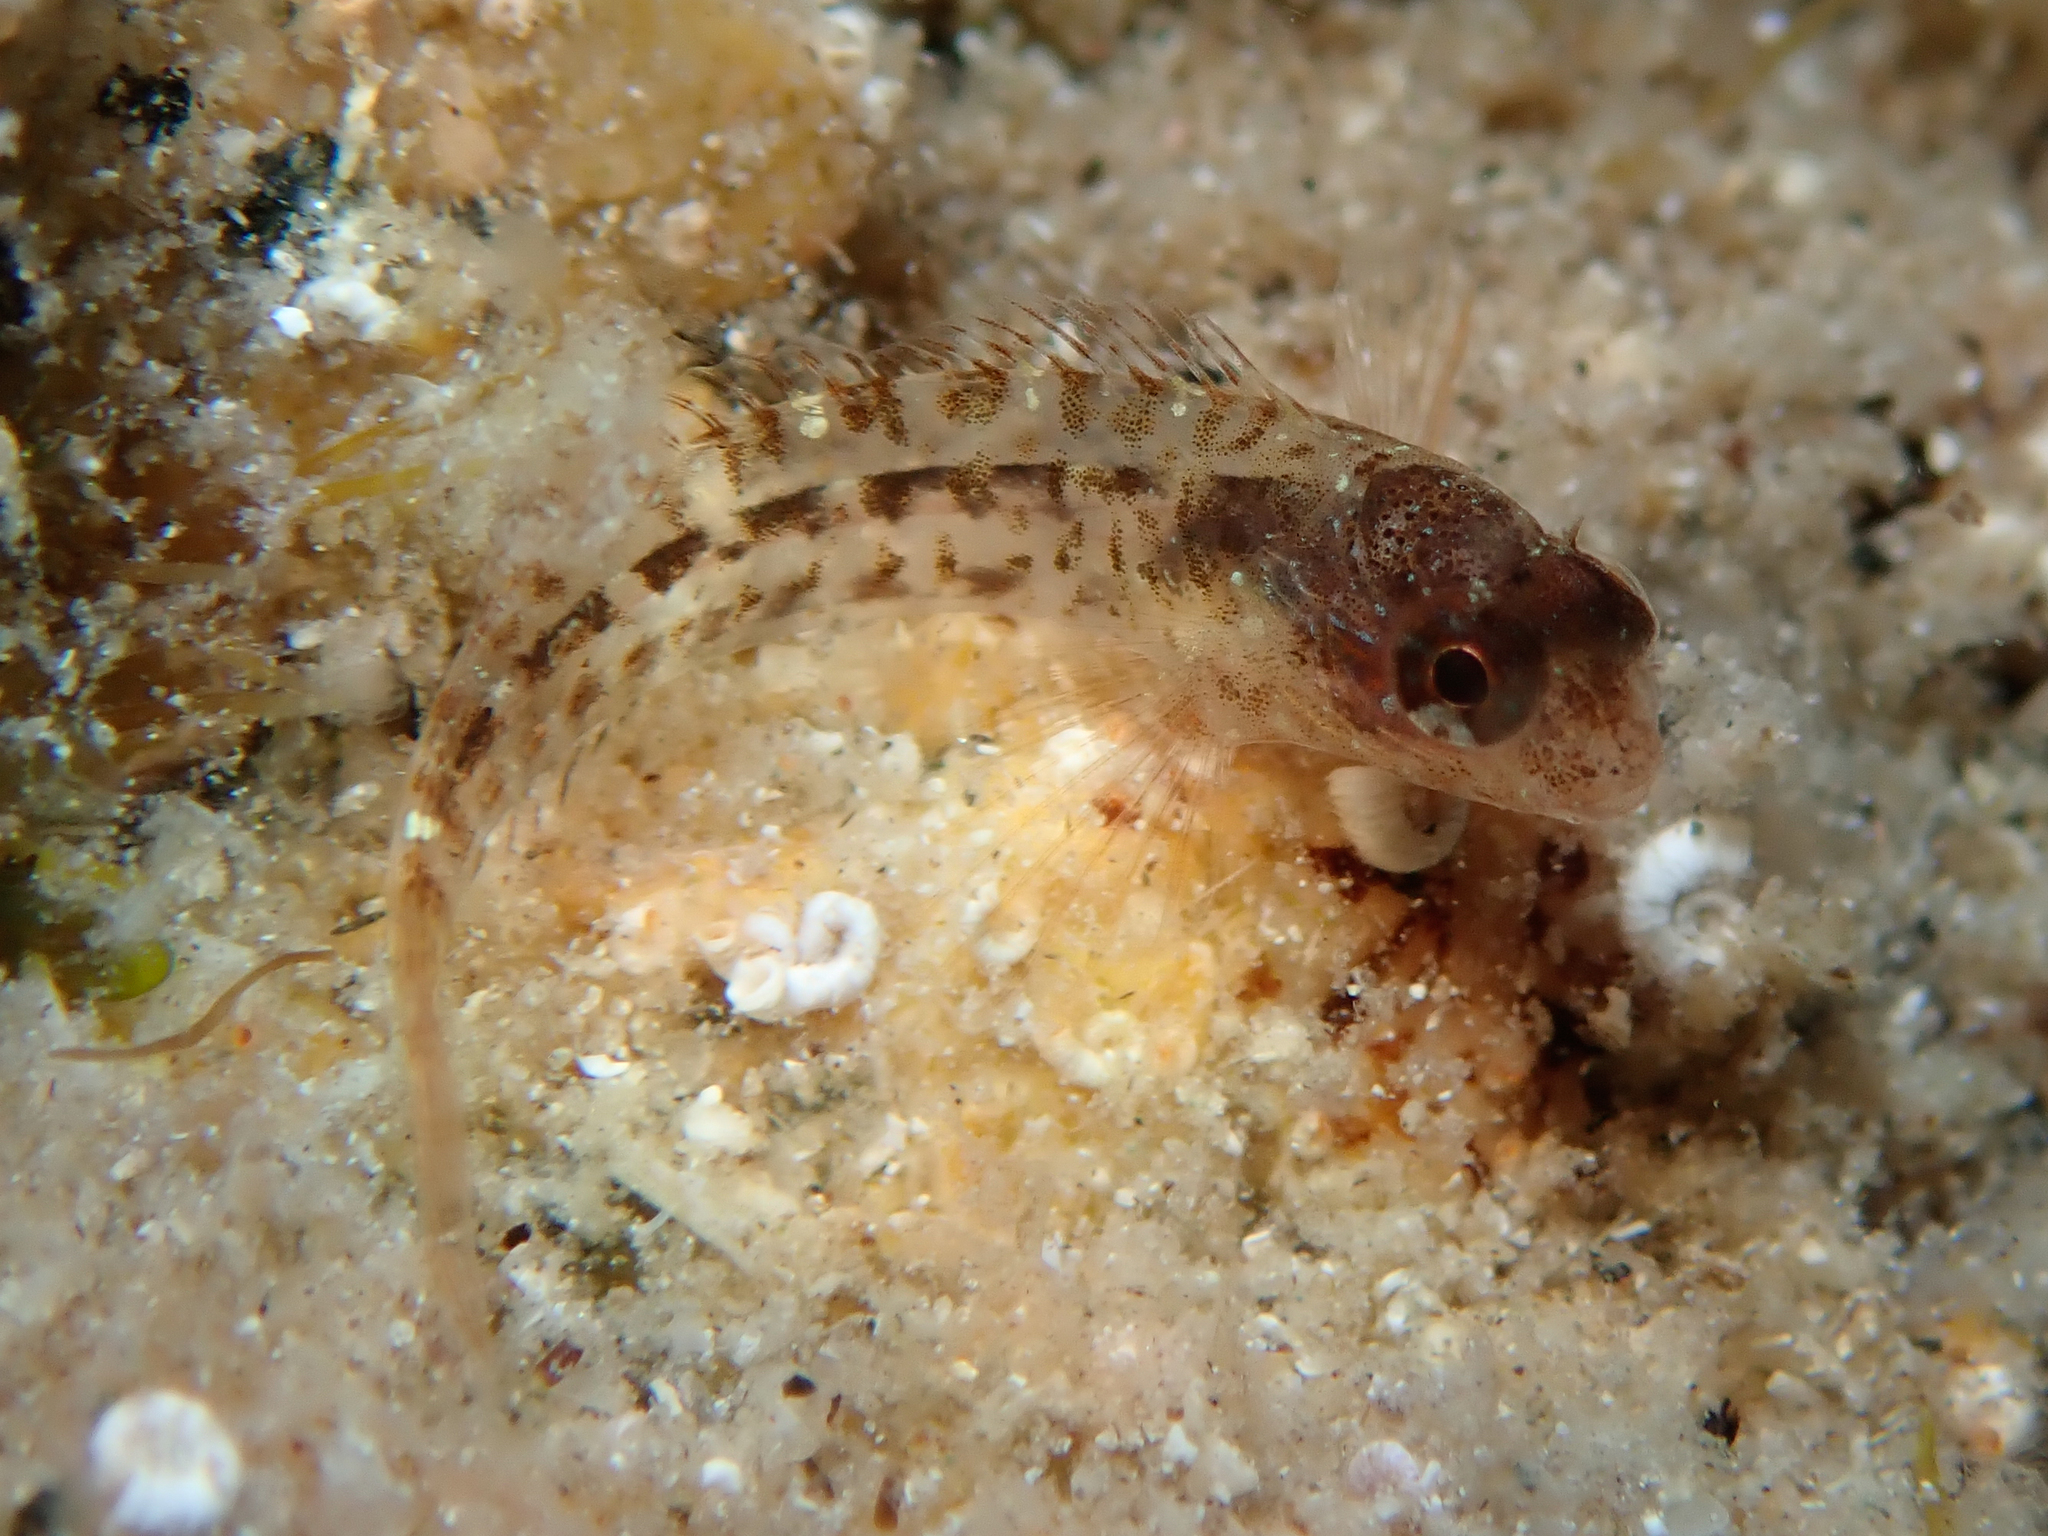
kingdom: Animalia
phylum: Chordata
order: Perciformes
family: Blenniidae
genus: Parablennius
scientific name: Parablennius zvonimiri
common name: Red blenny
